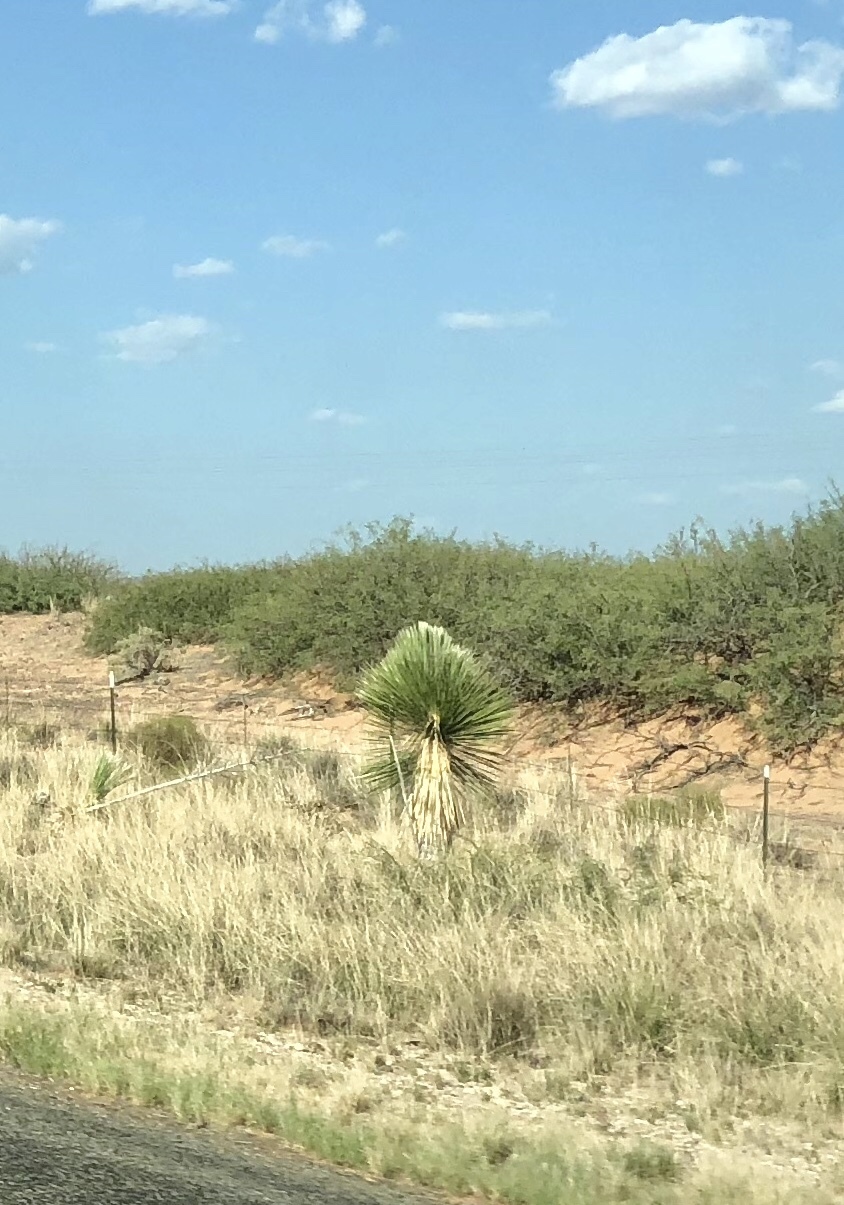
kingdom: Plantae
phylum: Tracheophyta
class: Liliopsida
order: Asparagales
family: Asparagaceae
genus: Yucca
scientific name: Yucca elata
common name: Palmella
